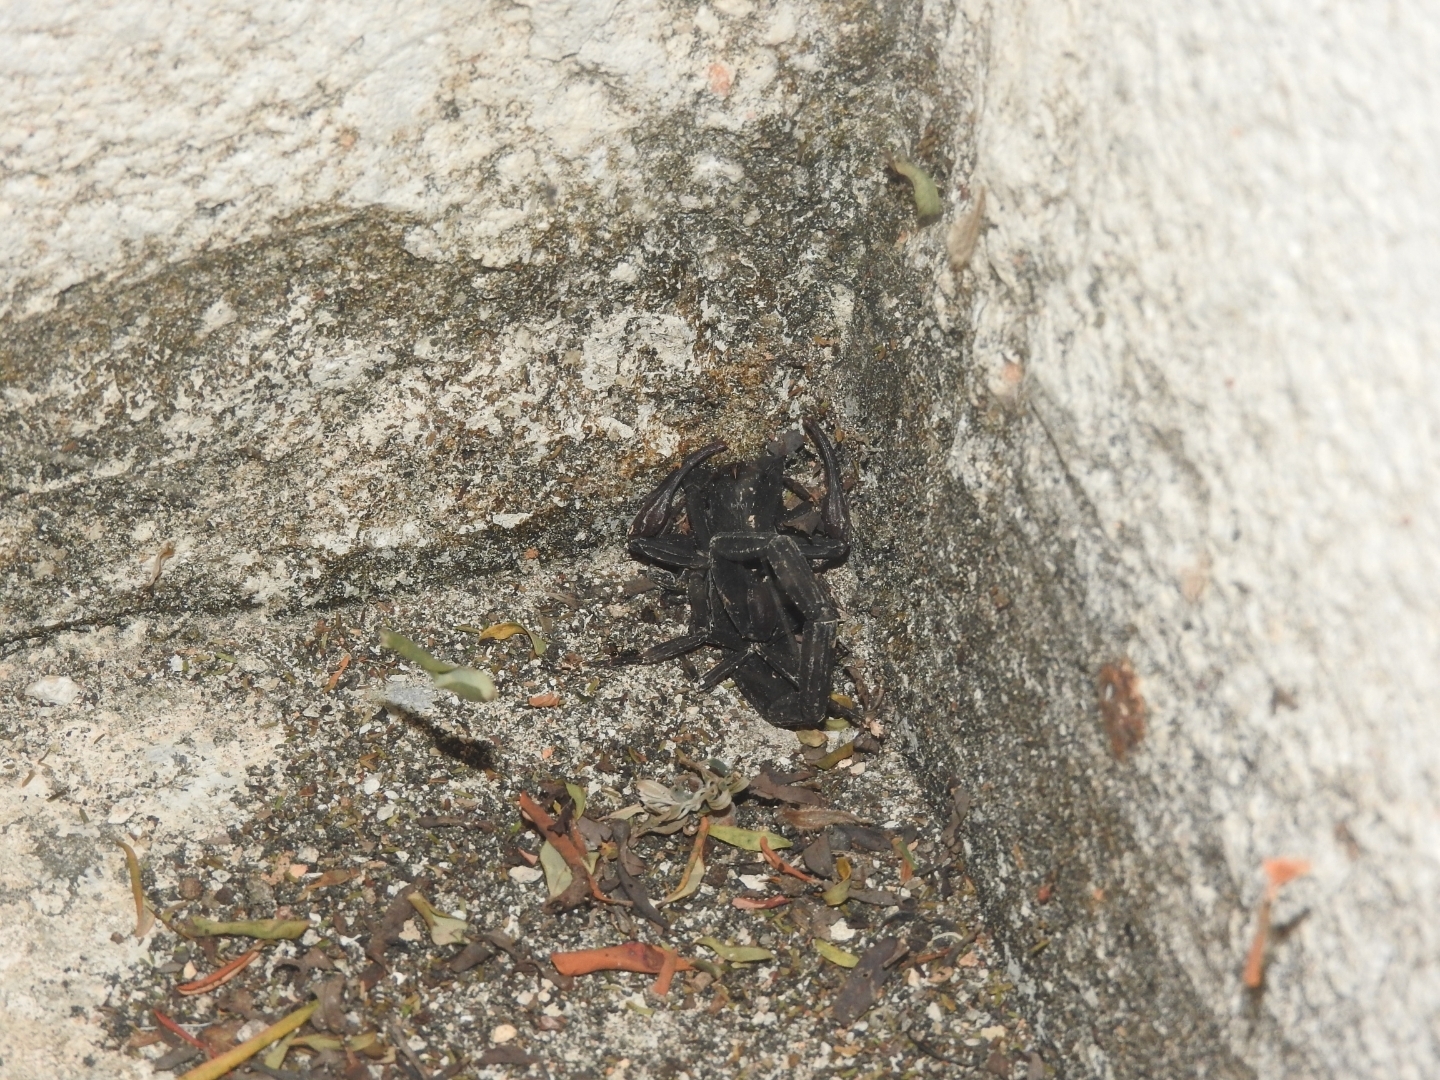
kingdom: Animalia
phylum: Arthropoda
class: Arachnida
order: Scorpiones
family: Buthidae
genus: Centruroides
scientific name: Centruroides gracilis
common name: Scorpions
